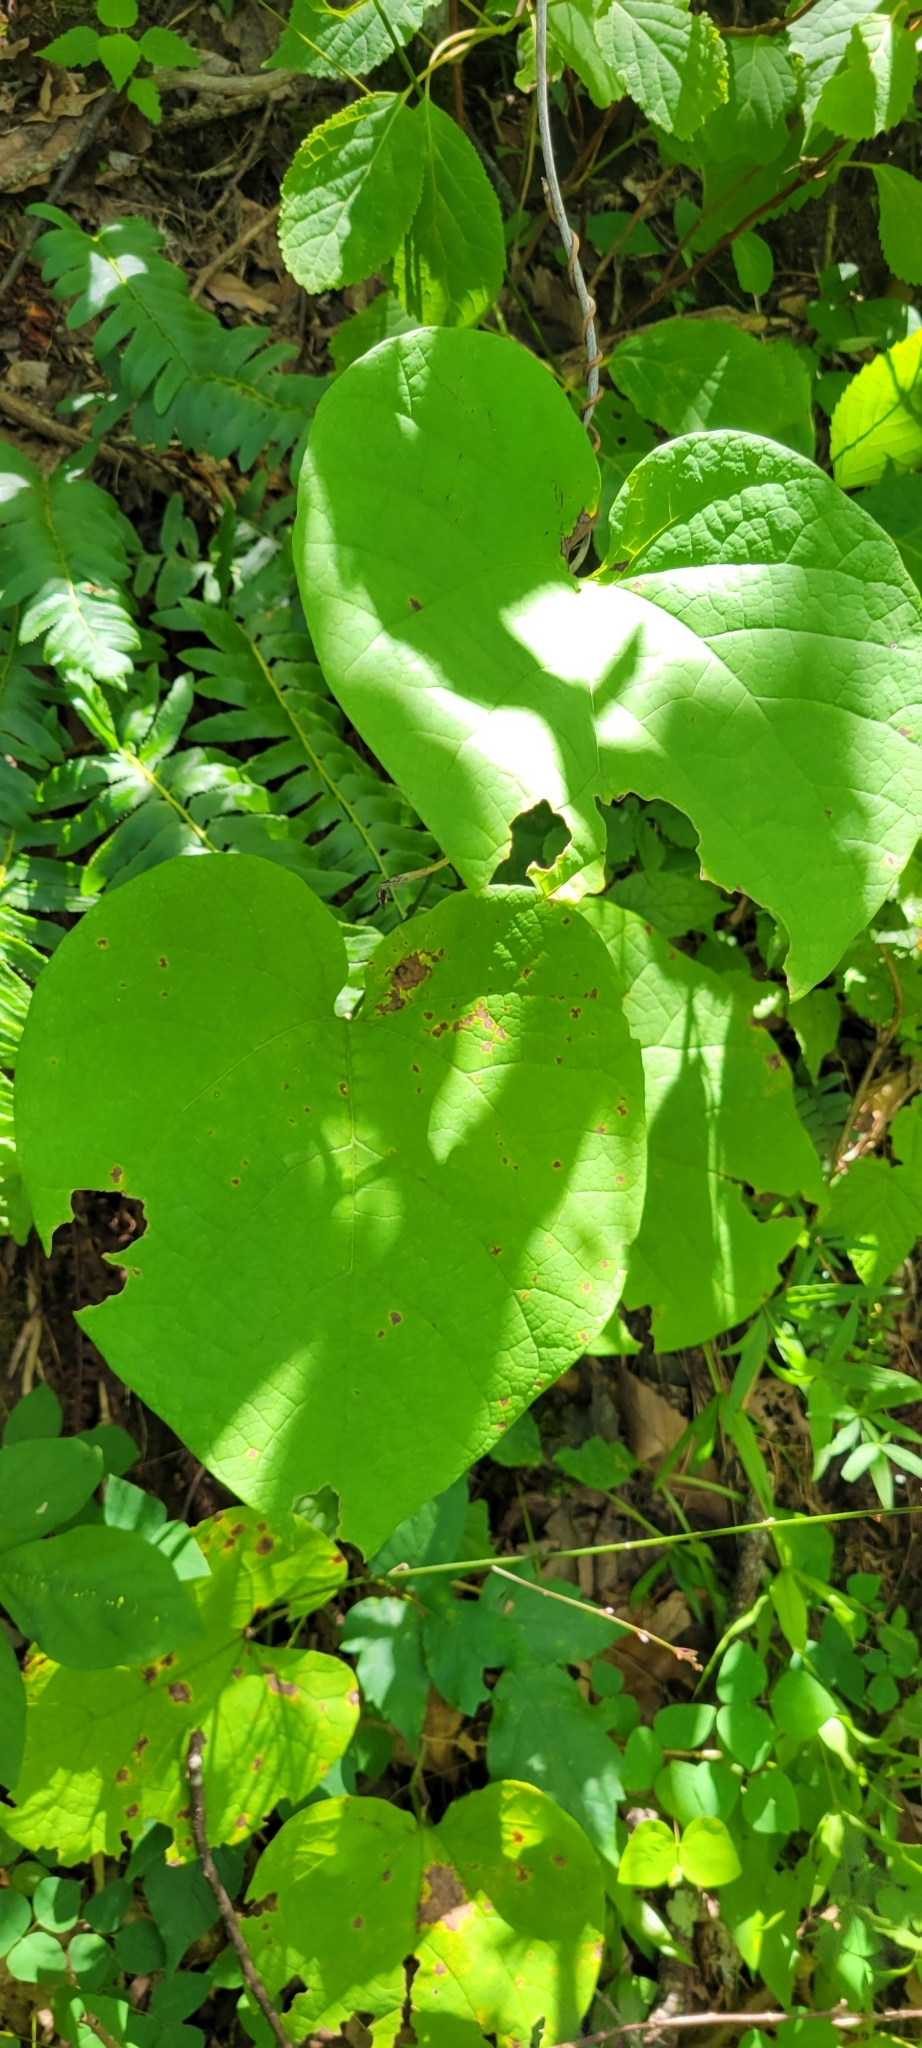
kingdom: Plantae
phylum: Tracheophyta
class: Magnoliopsida
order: Piperales
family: Aristolochiaceae
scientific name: Aristolochiaceae
